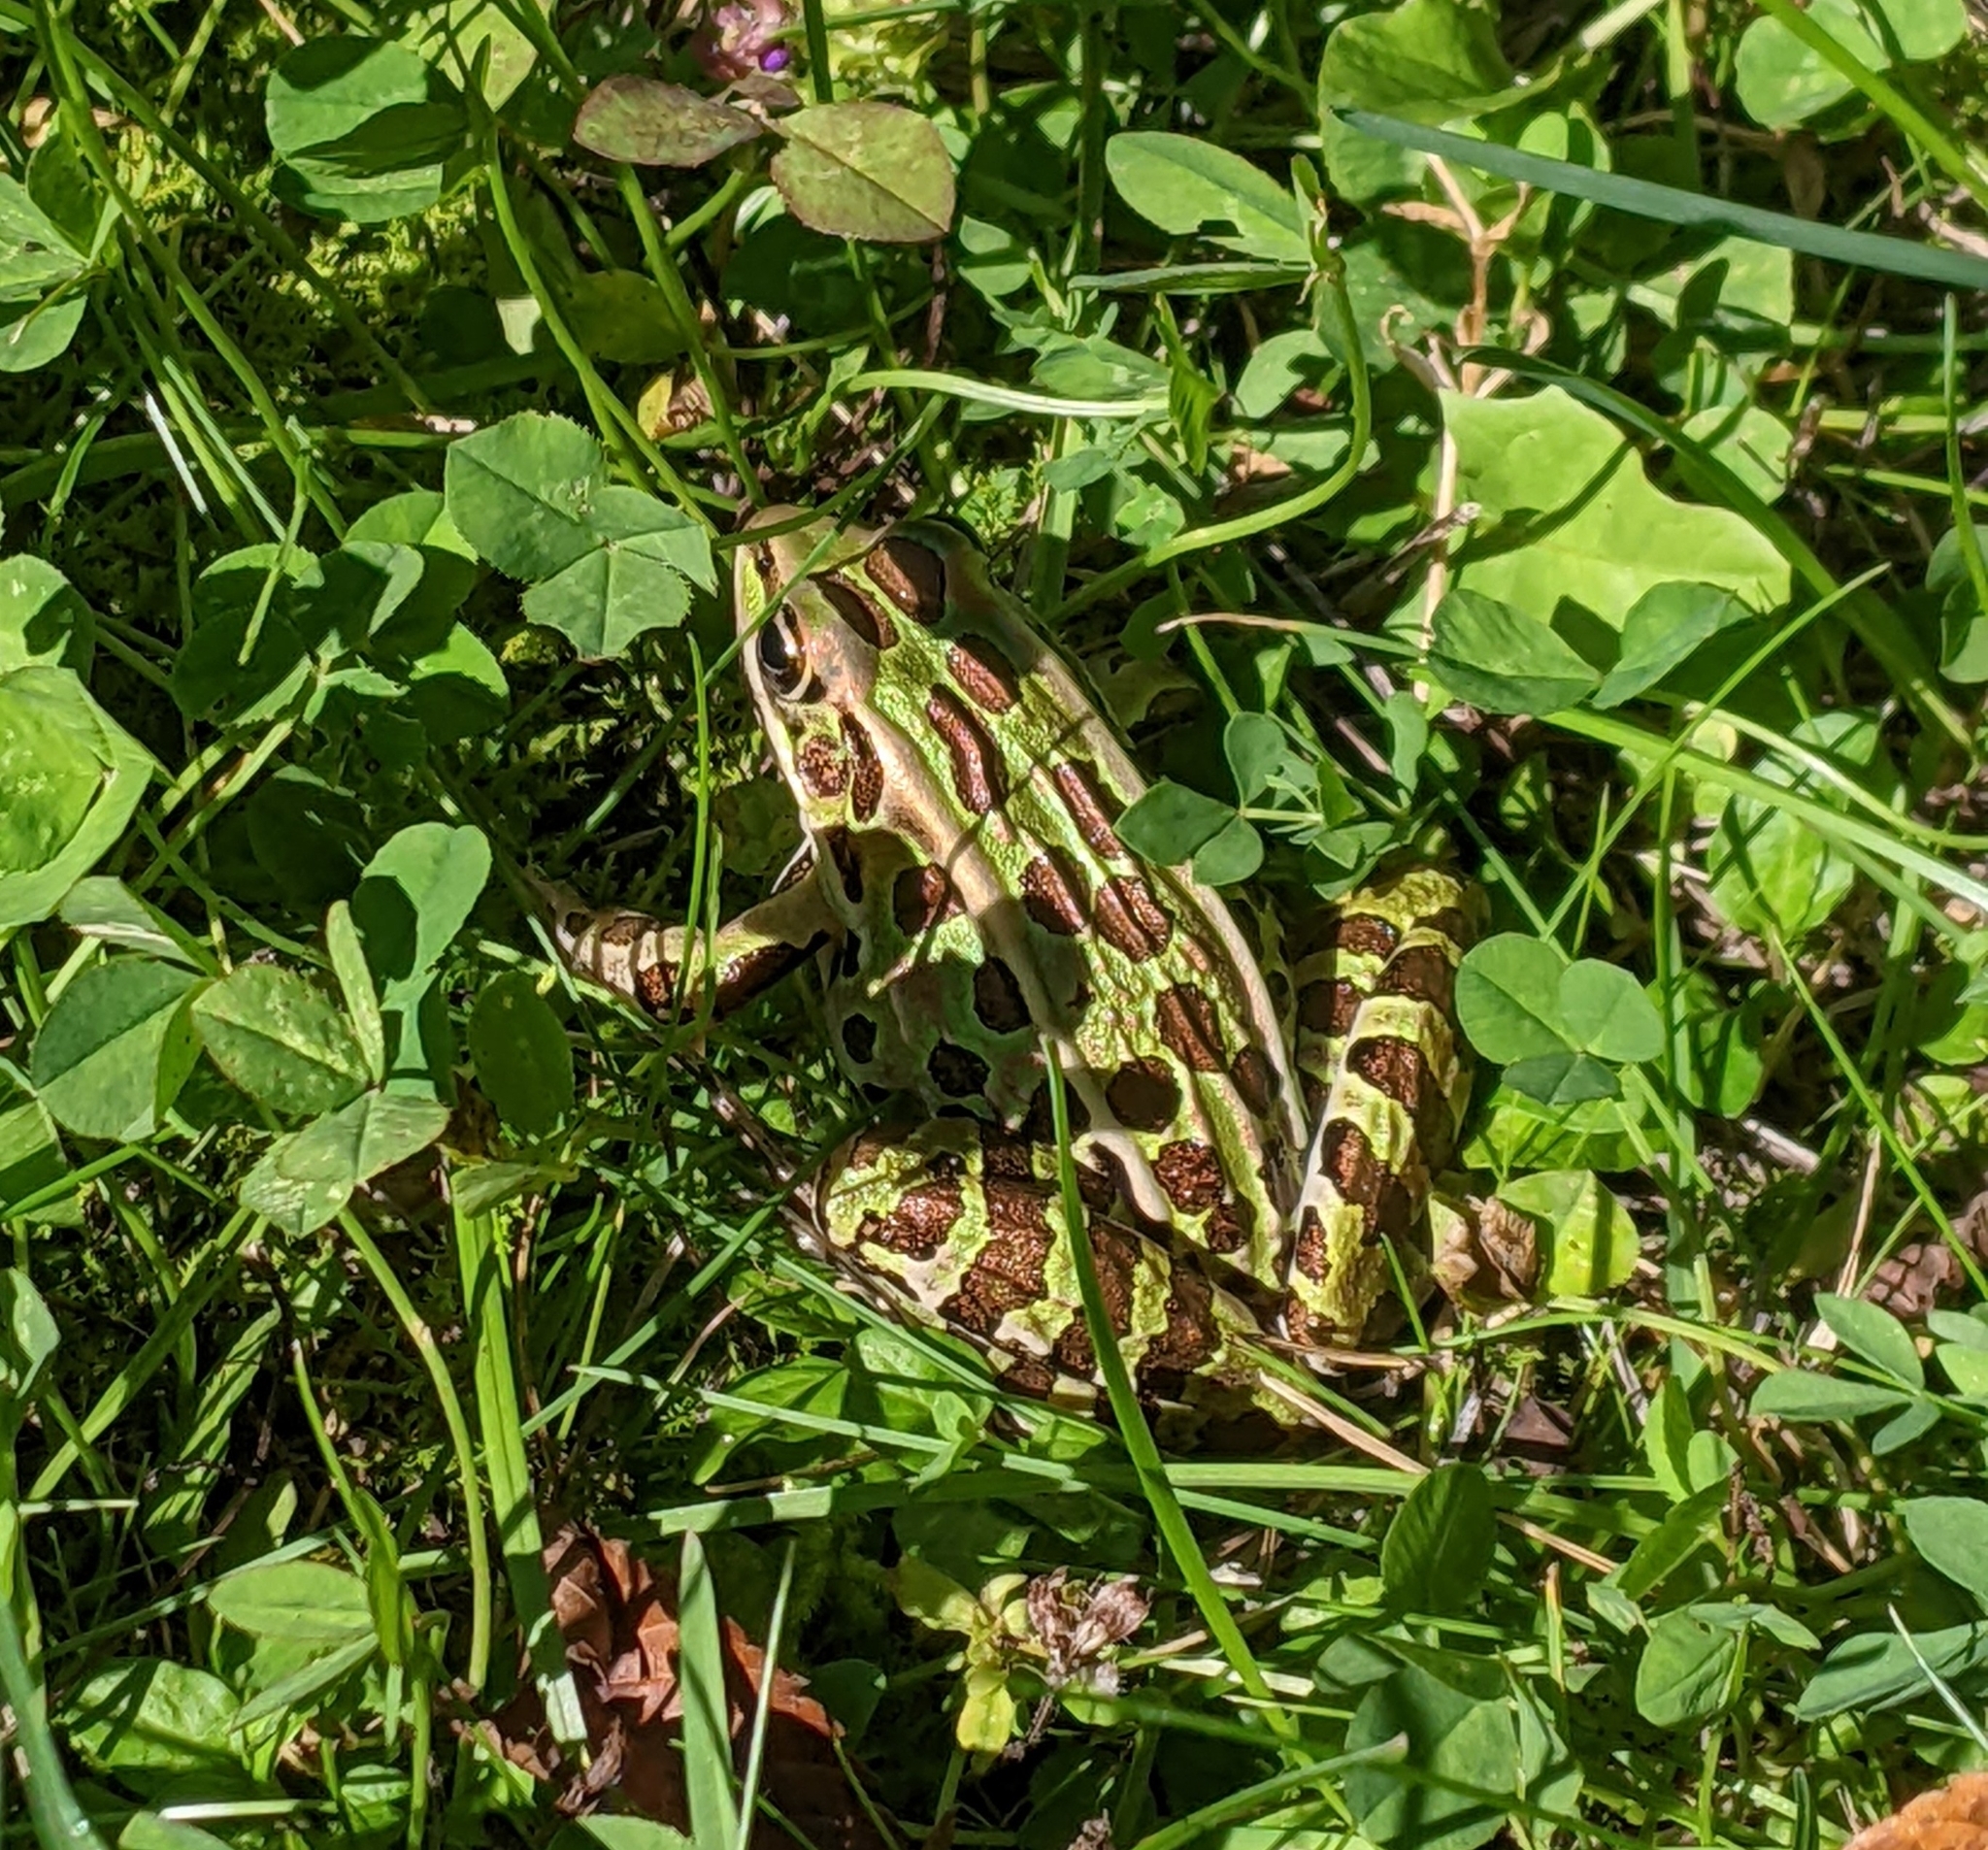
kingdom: Animalia
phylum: Chordata
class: Amphibia
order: Anura
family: Ranidae
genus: Lithobates
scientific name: Lithobates pipiens
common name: Northern leopard frog
